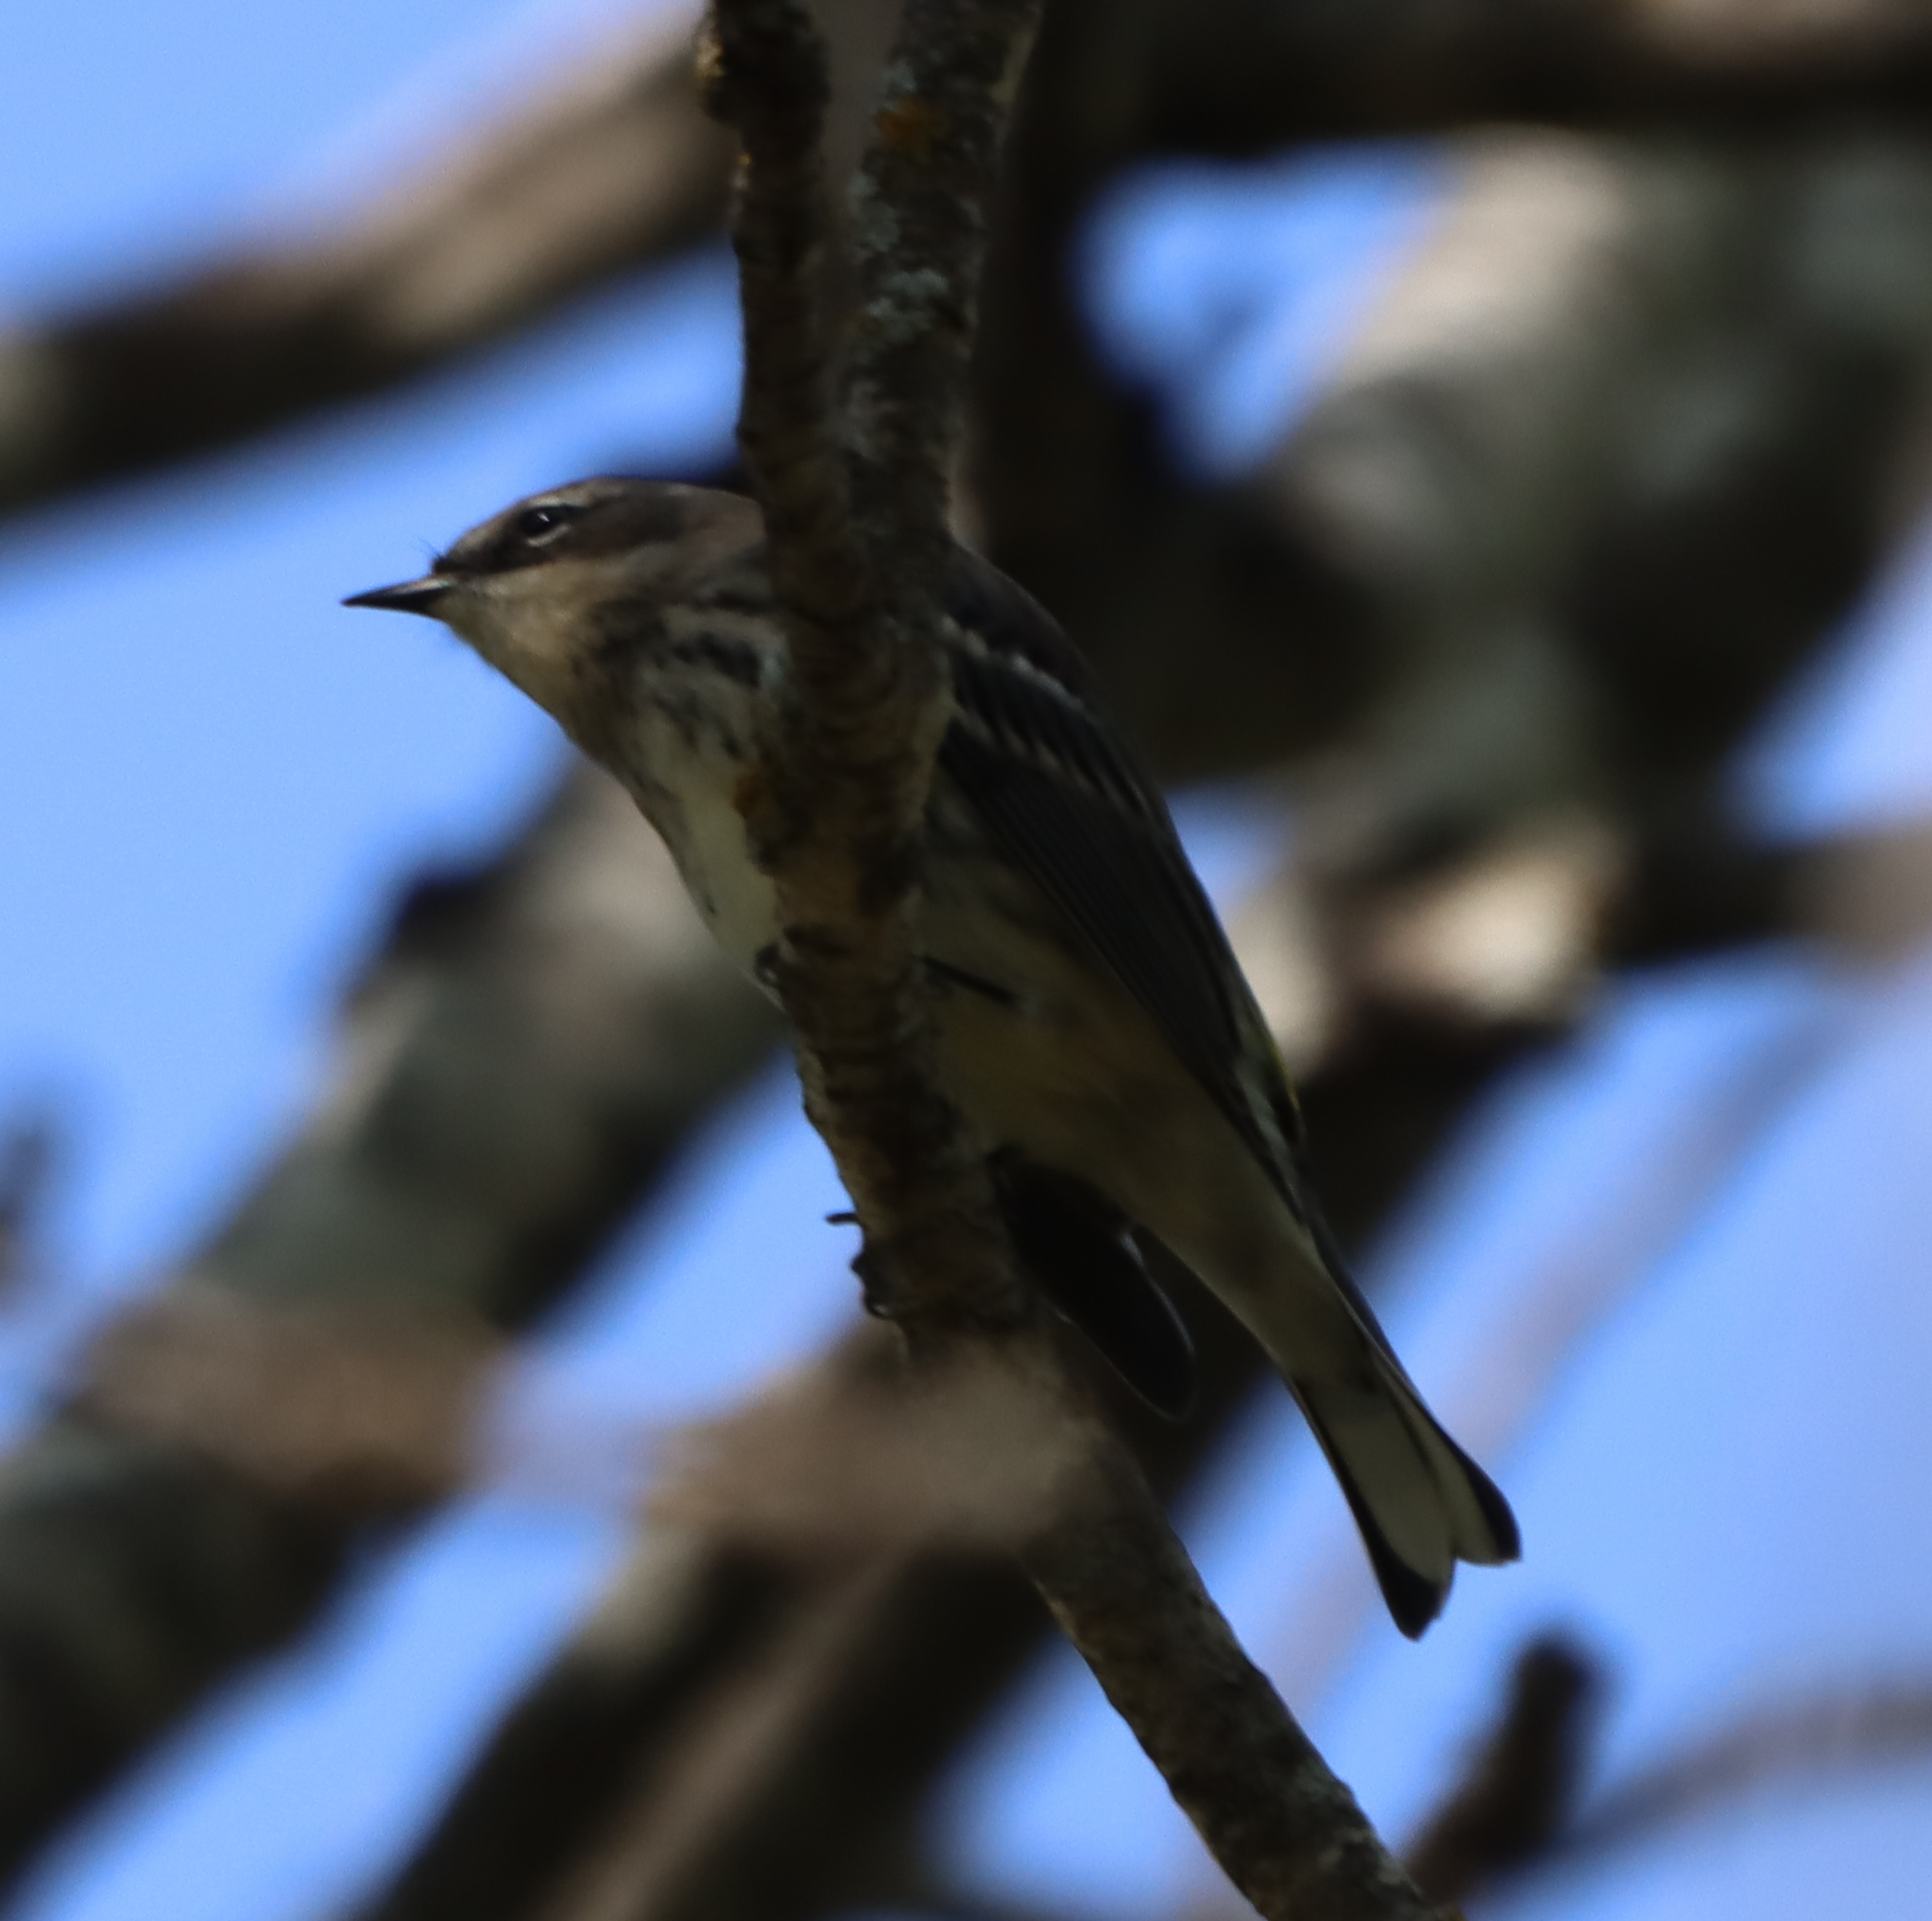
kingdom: Animalia
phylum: Chordata
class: Aves
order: Passeriformes
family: Parulidae
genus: Setophaga
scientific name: Setophaga coronata
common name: Myrtle warbler
